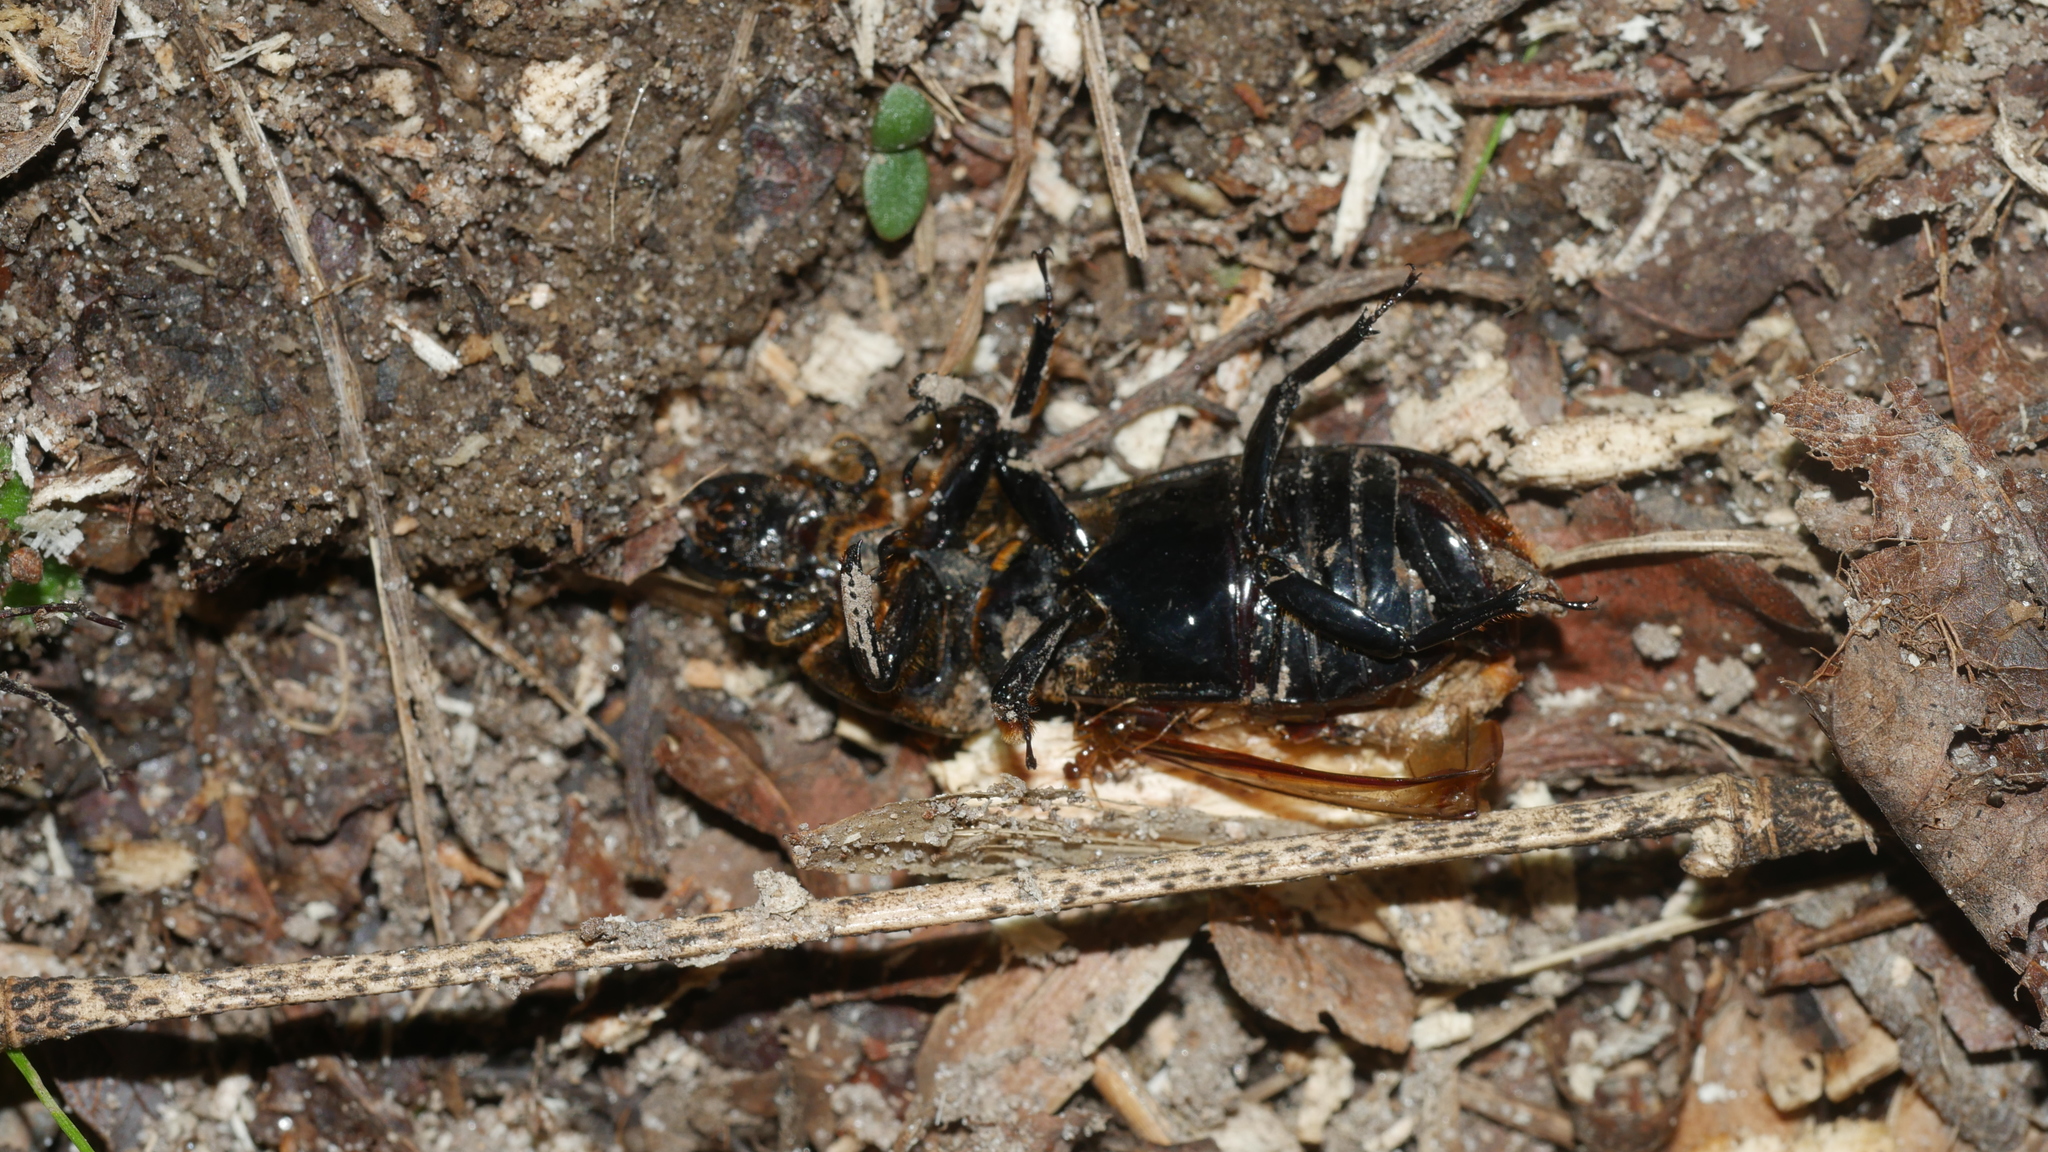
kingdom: Animalia
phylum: Arthropoda
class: Insecta
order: Coleoptera
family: Passalidae
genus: Odontotaenius
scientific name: Odontotaenius disjunctus
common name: Patent leather beetle
